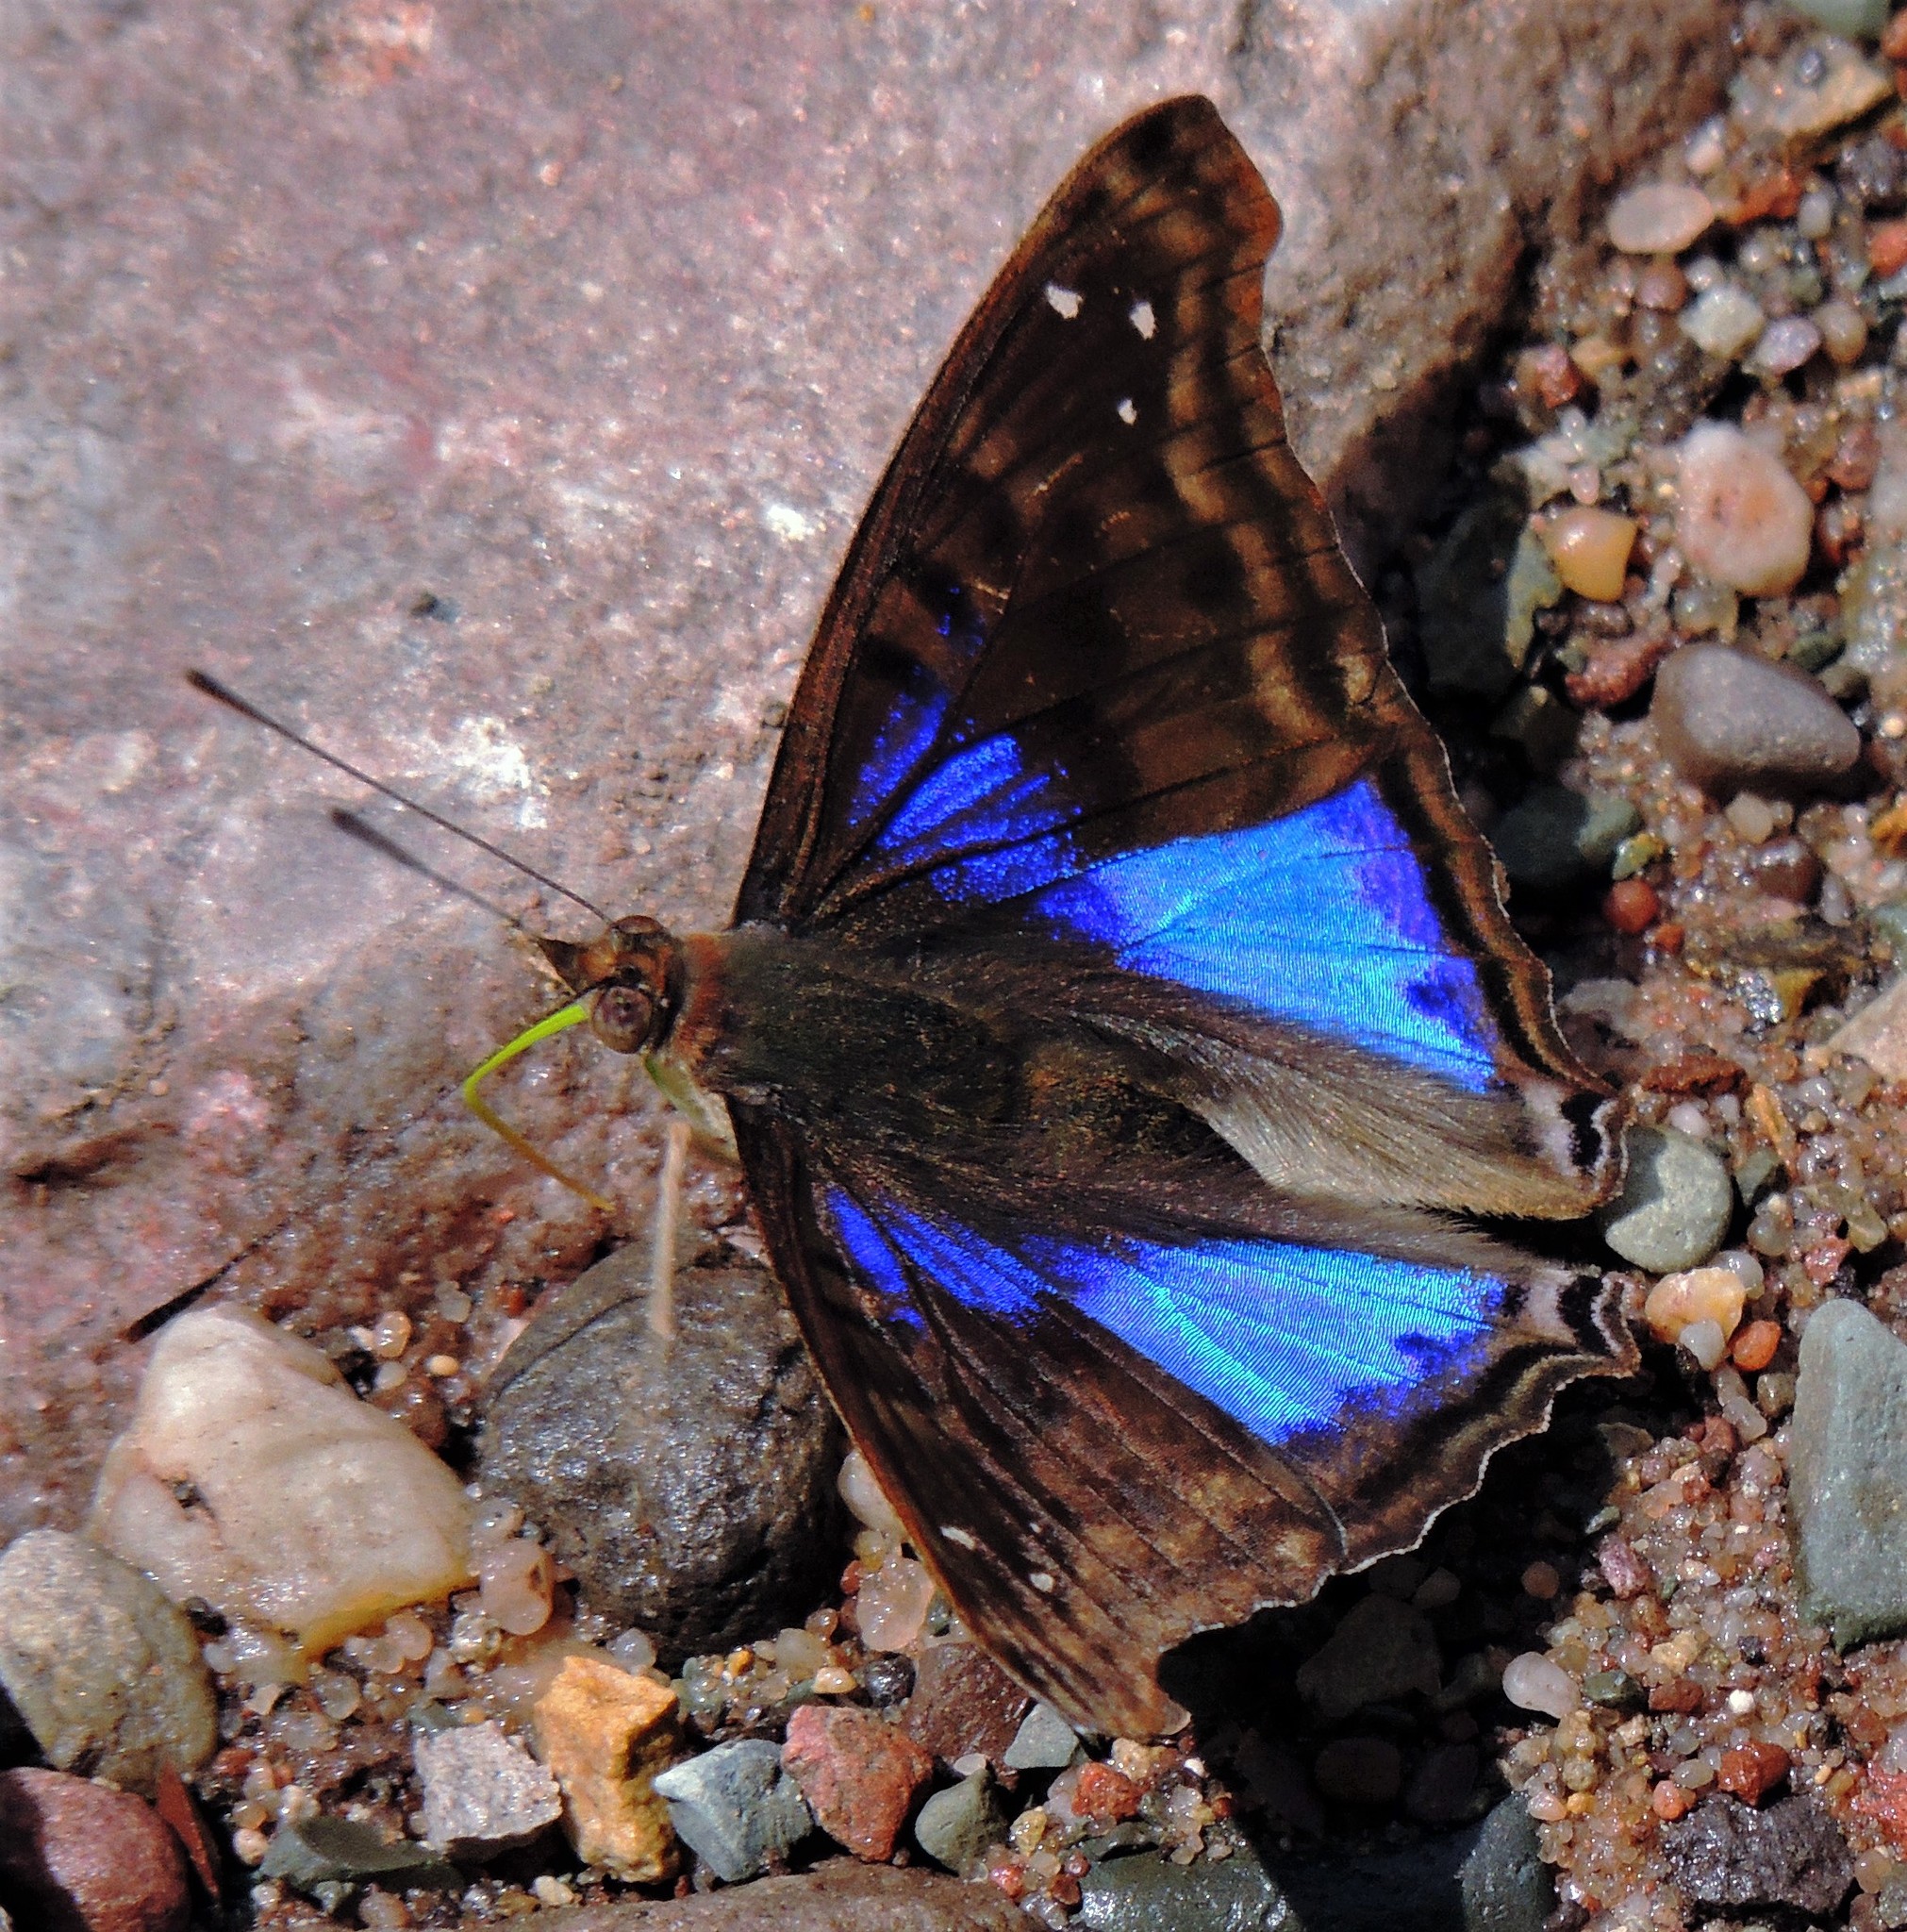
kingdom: Animalia
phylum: Arthropoda
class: Insecta
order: Lepidoptera
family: Nymphalidae
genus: Doxocopa
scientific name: Doxocopa cyane
